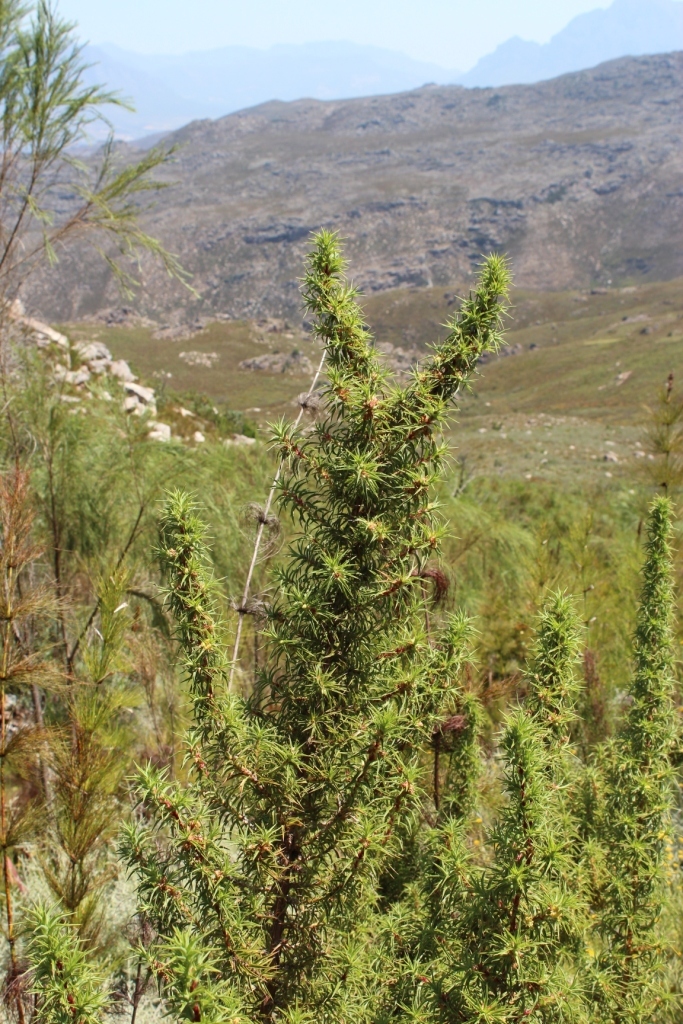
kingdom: Plantae
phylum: Tracheophyta
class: Magnoliopsida
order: Rosales
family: Rosaceae
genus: Cliffortia
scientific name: Cliffortia dregeana
